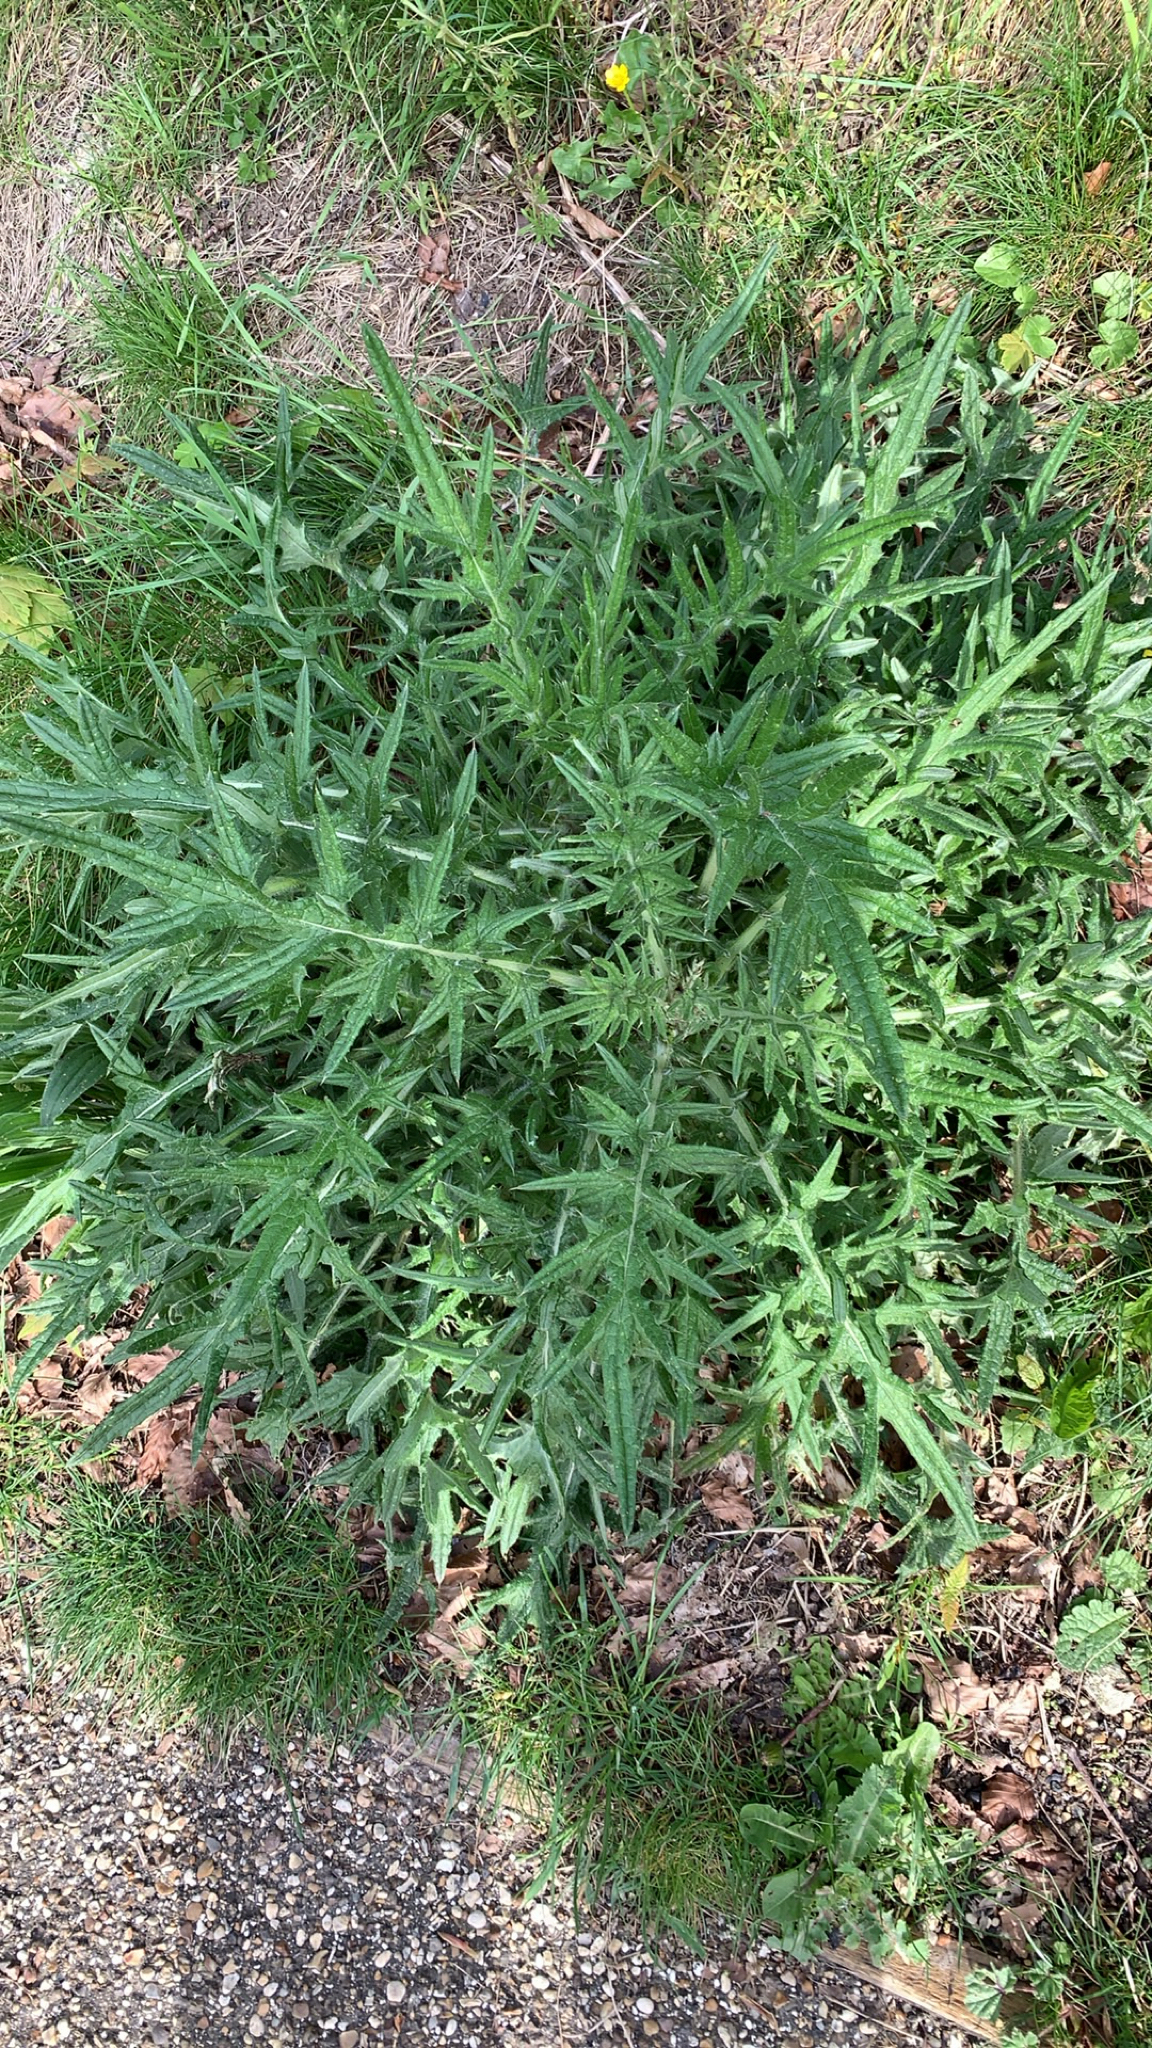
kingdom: Plantae
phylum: Tracheophyta
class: Magnoliopsida
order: Asterales
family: Asteraceae
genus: Cirsium
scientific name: Cirsium vulgare
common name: Bull thistle
